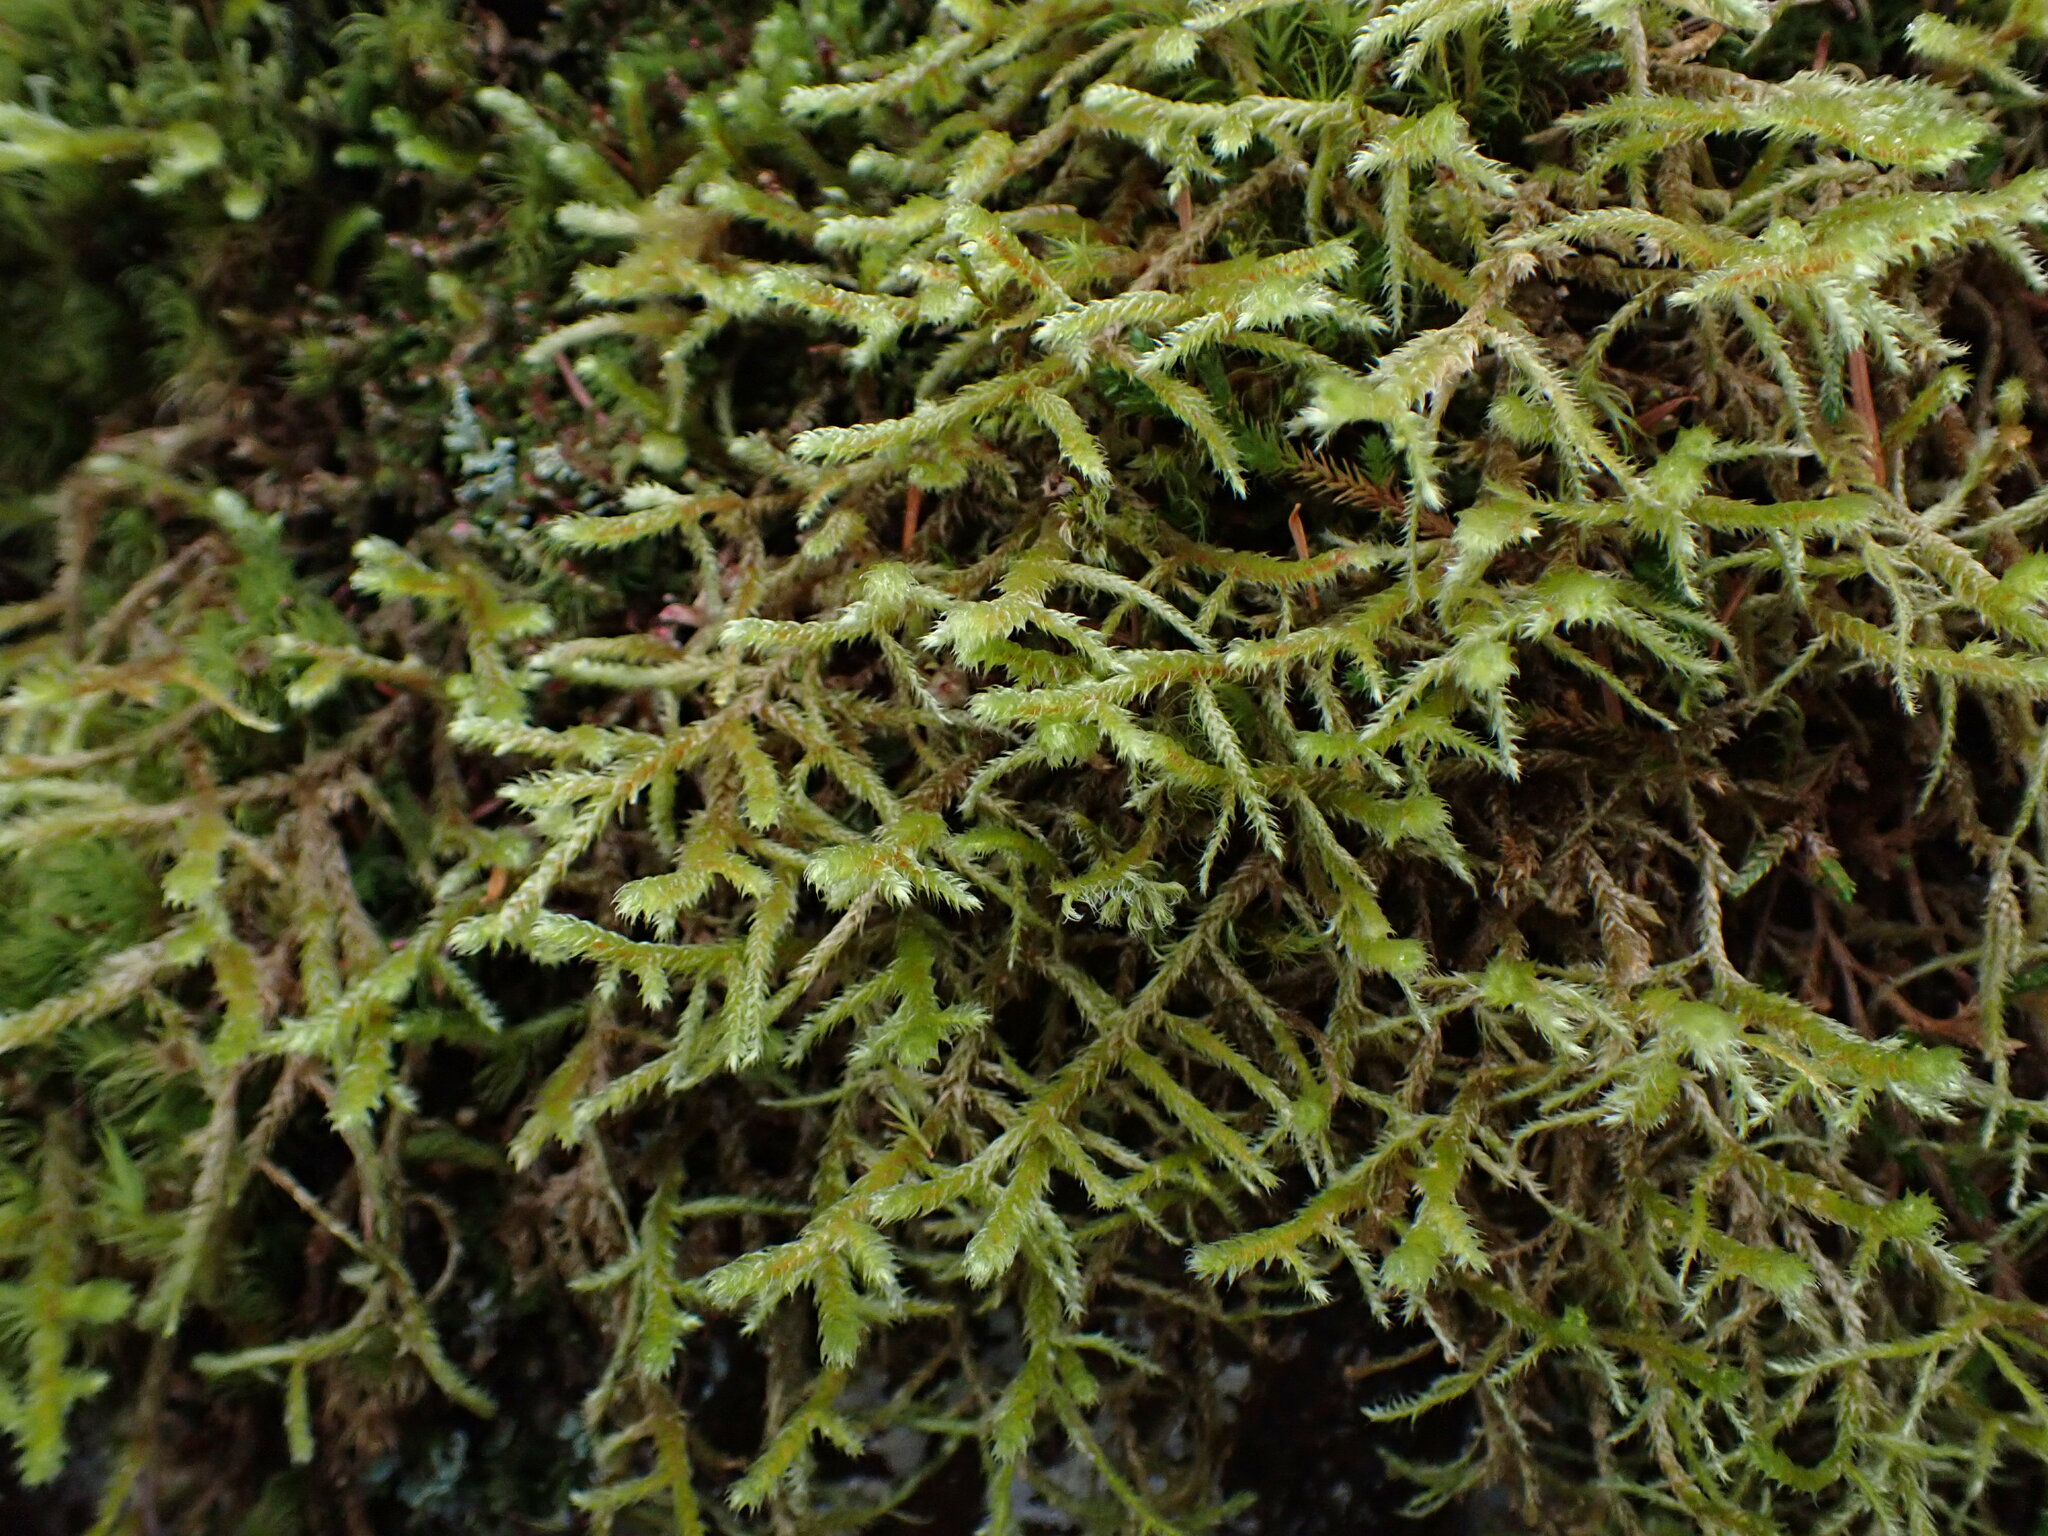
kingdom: Plantae
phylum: Bryophyta
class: Bryopsida
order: Hypnales
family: Antitrichiaceae
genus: Antitrichia
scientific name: Antitrichia curtipendula
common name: Pendulous wing-moss
